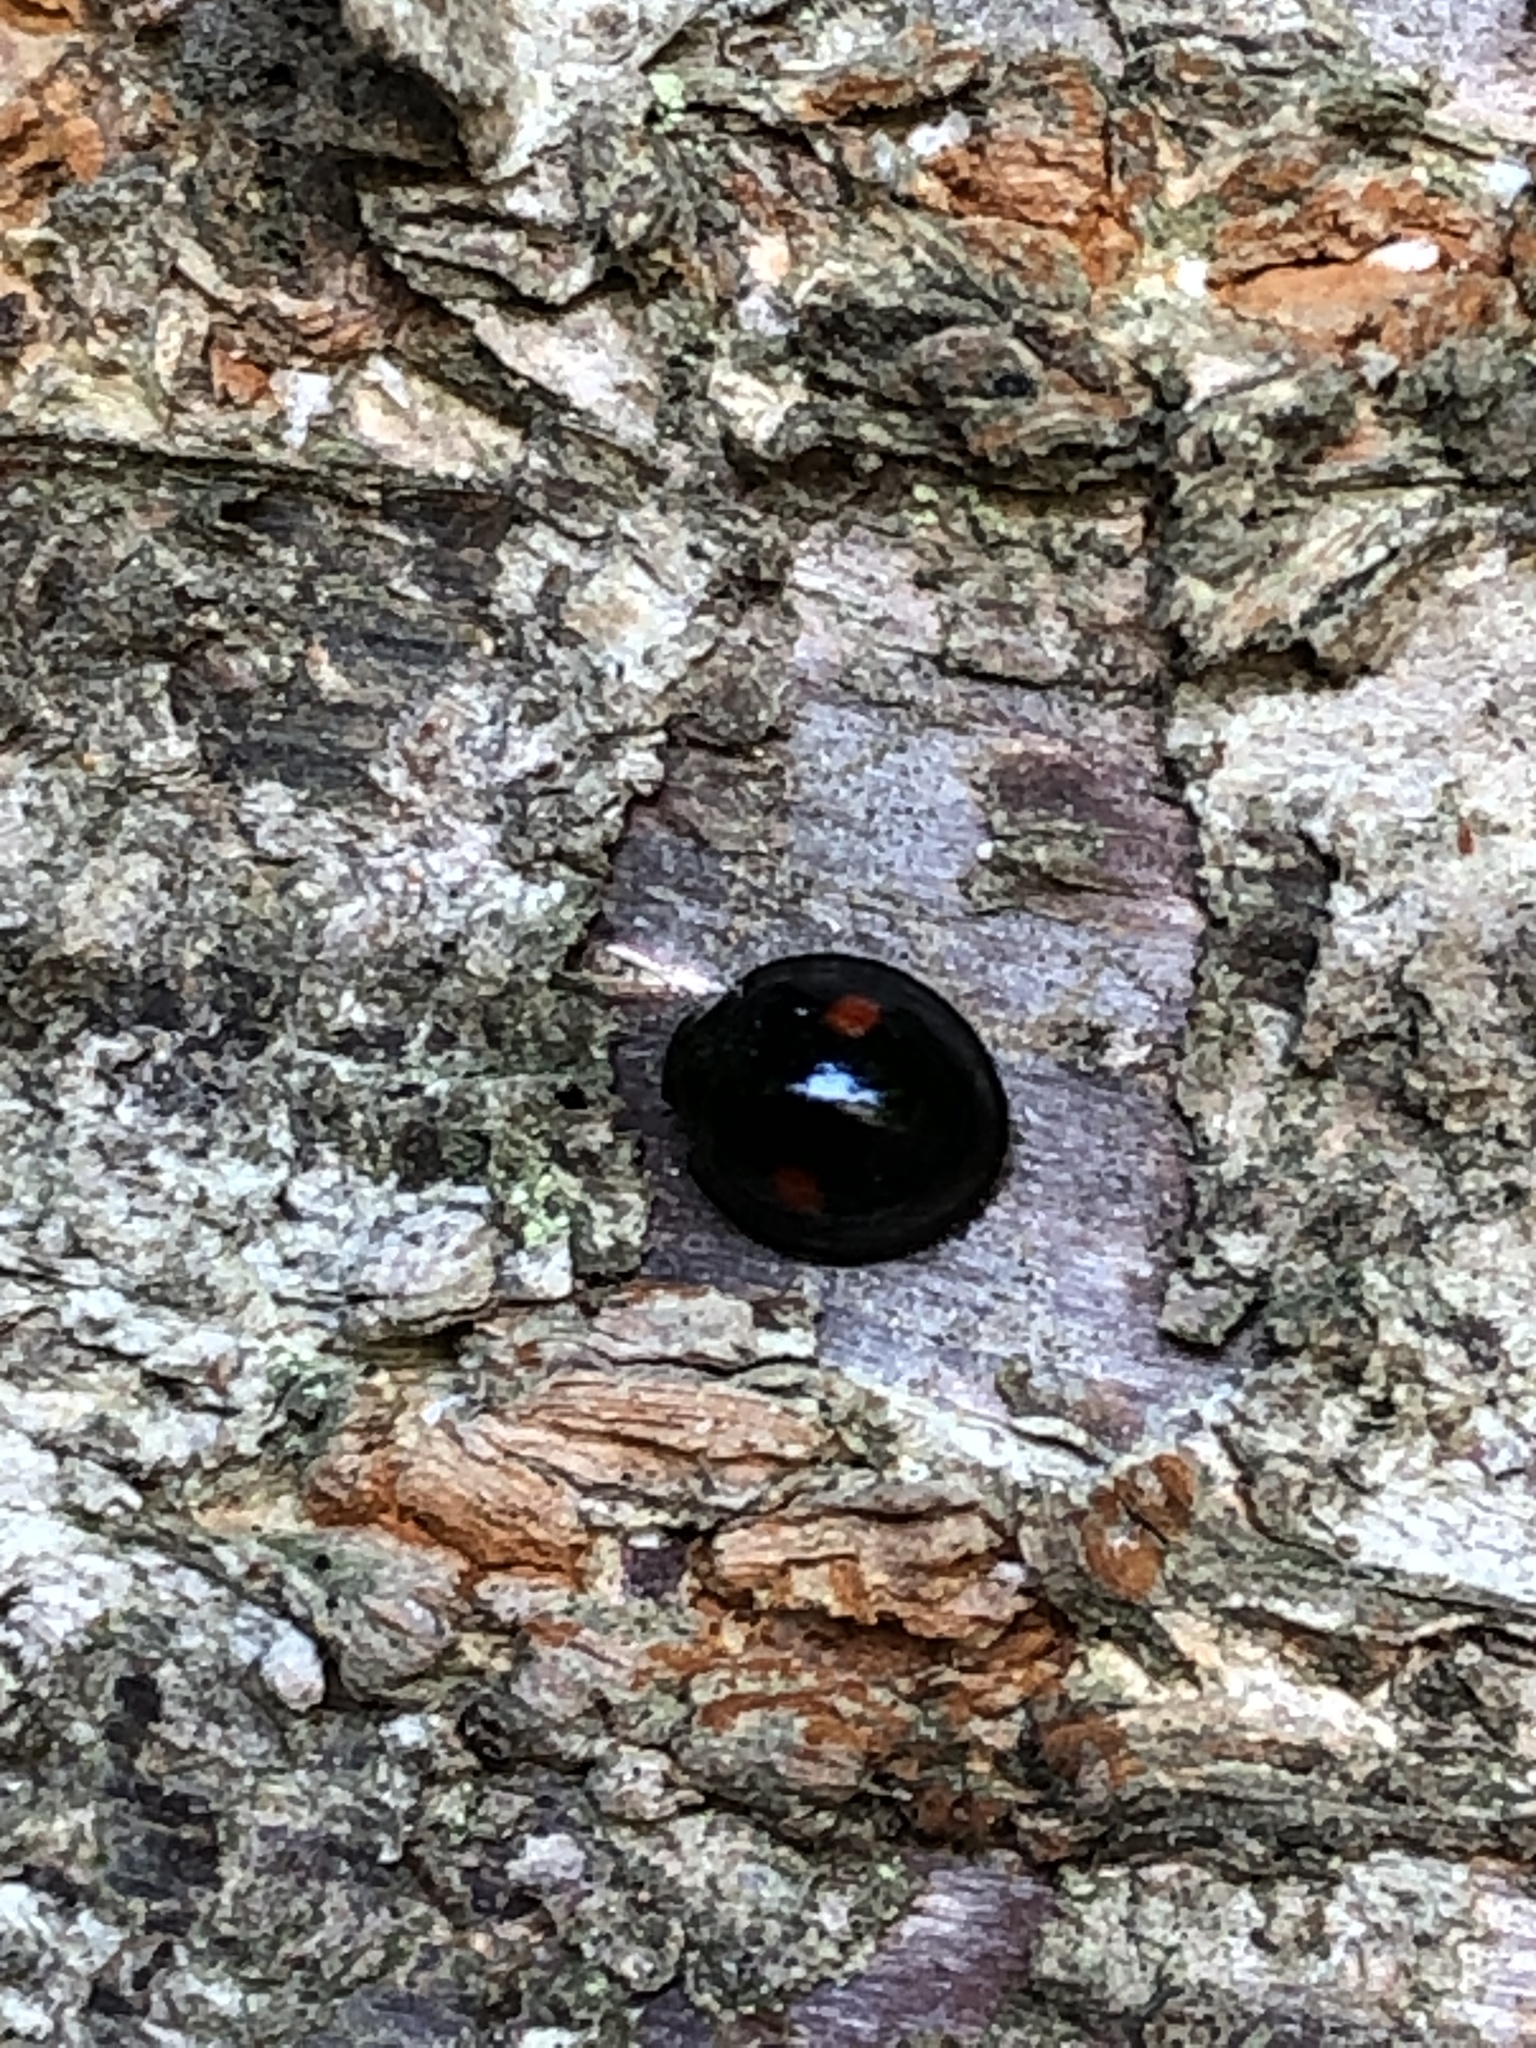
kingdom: Animalia
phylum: Arthropoda
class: Insecta
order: Coleoptera
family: Coccinellidae
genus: Chilocorus
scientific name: Chilocorus kuwanae
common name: Ladybird beetle
